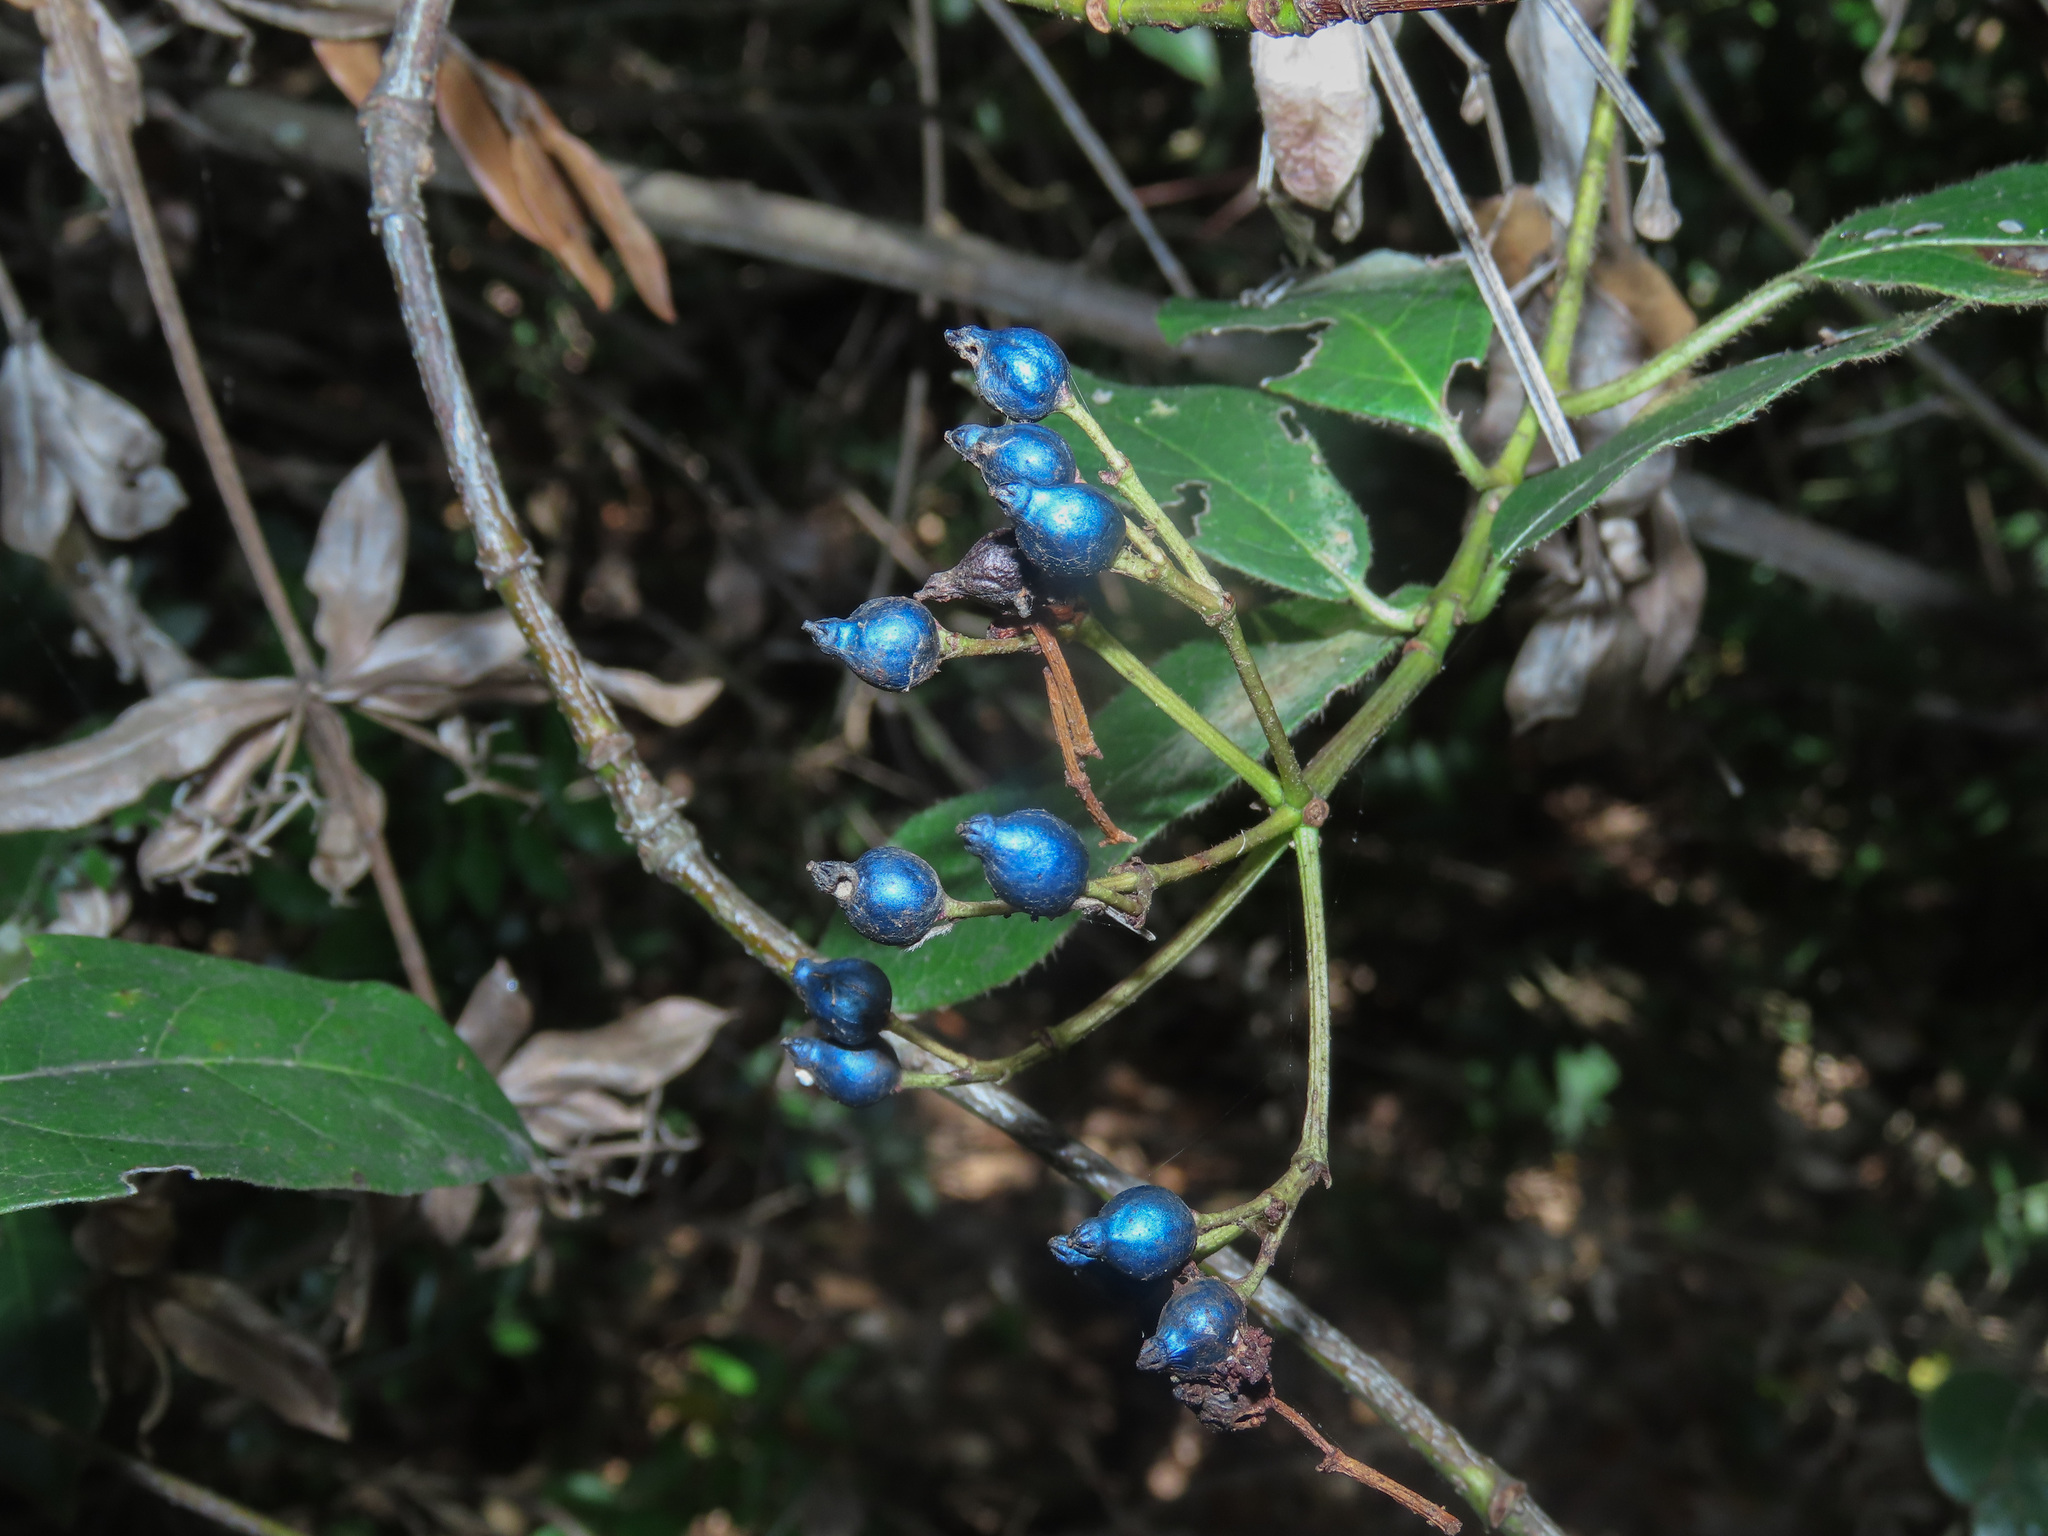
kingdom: Plantae
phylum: Tracheophyta
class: Magnoliopsida
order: Dipsacales
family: Viburnaceae
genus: Viburnum
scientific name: Viburnum tinus
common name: Laurustinus
